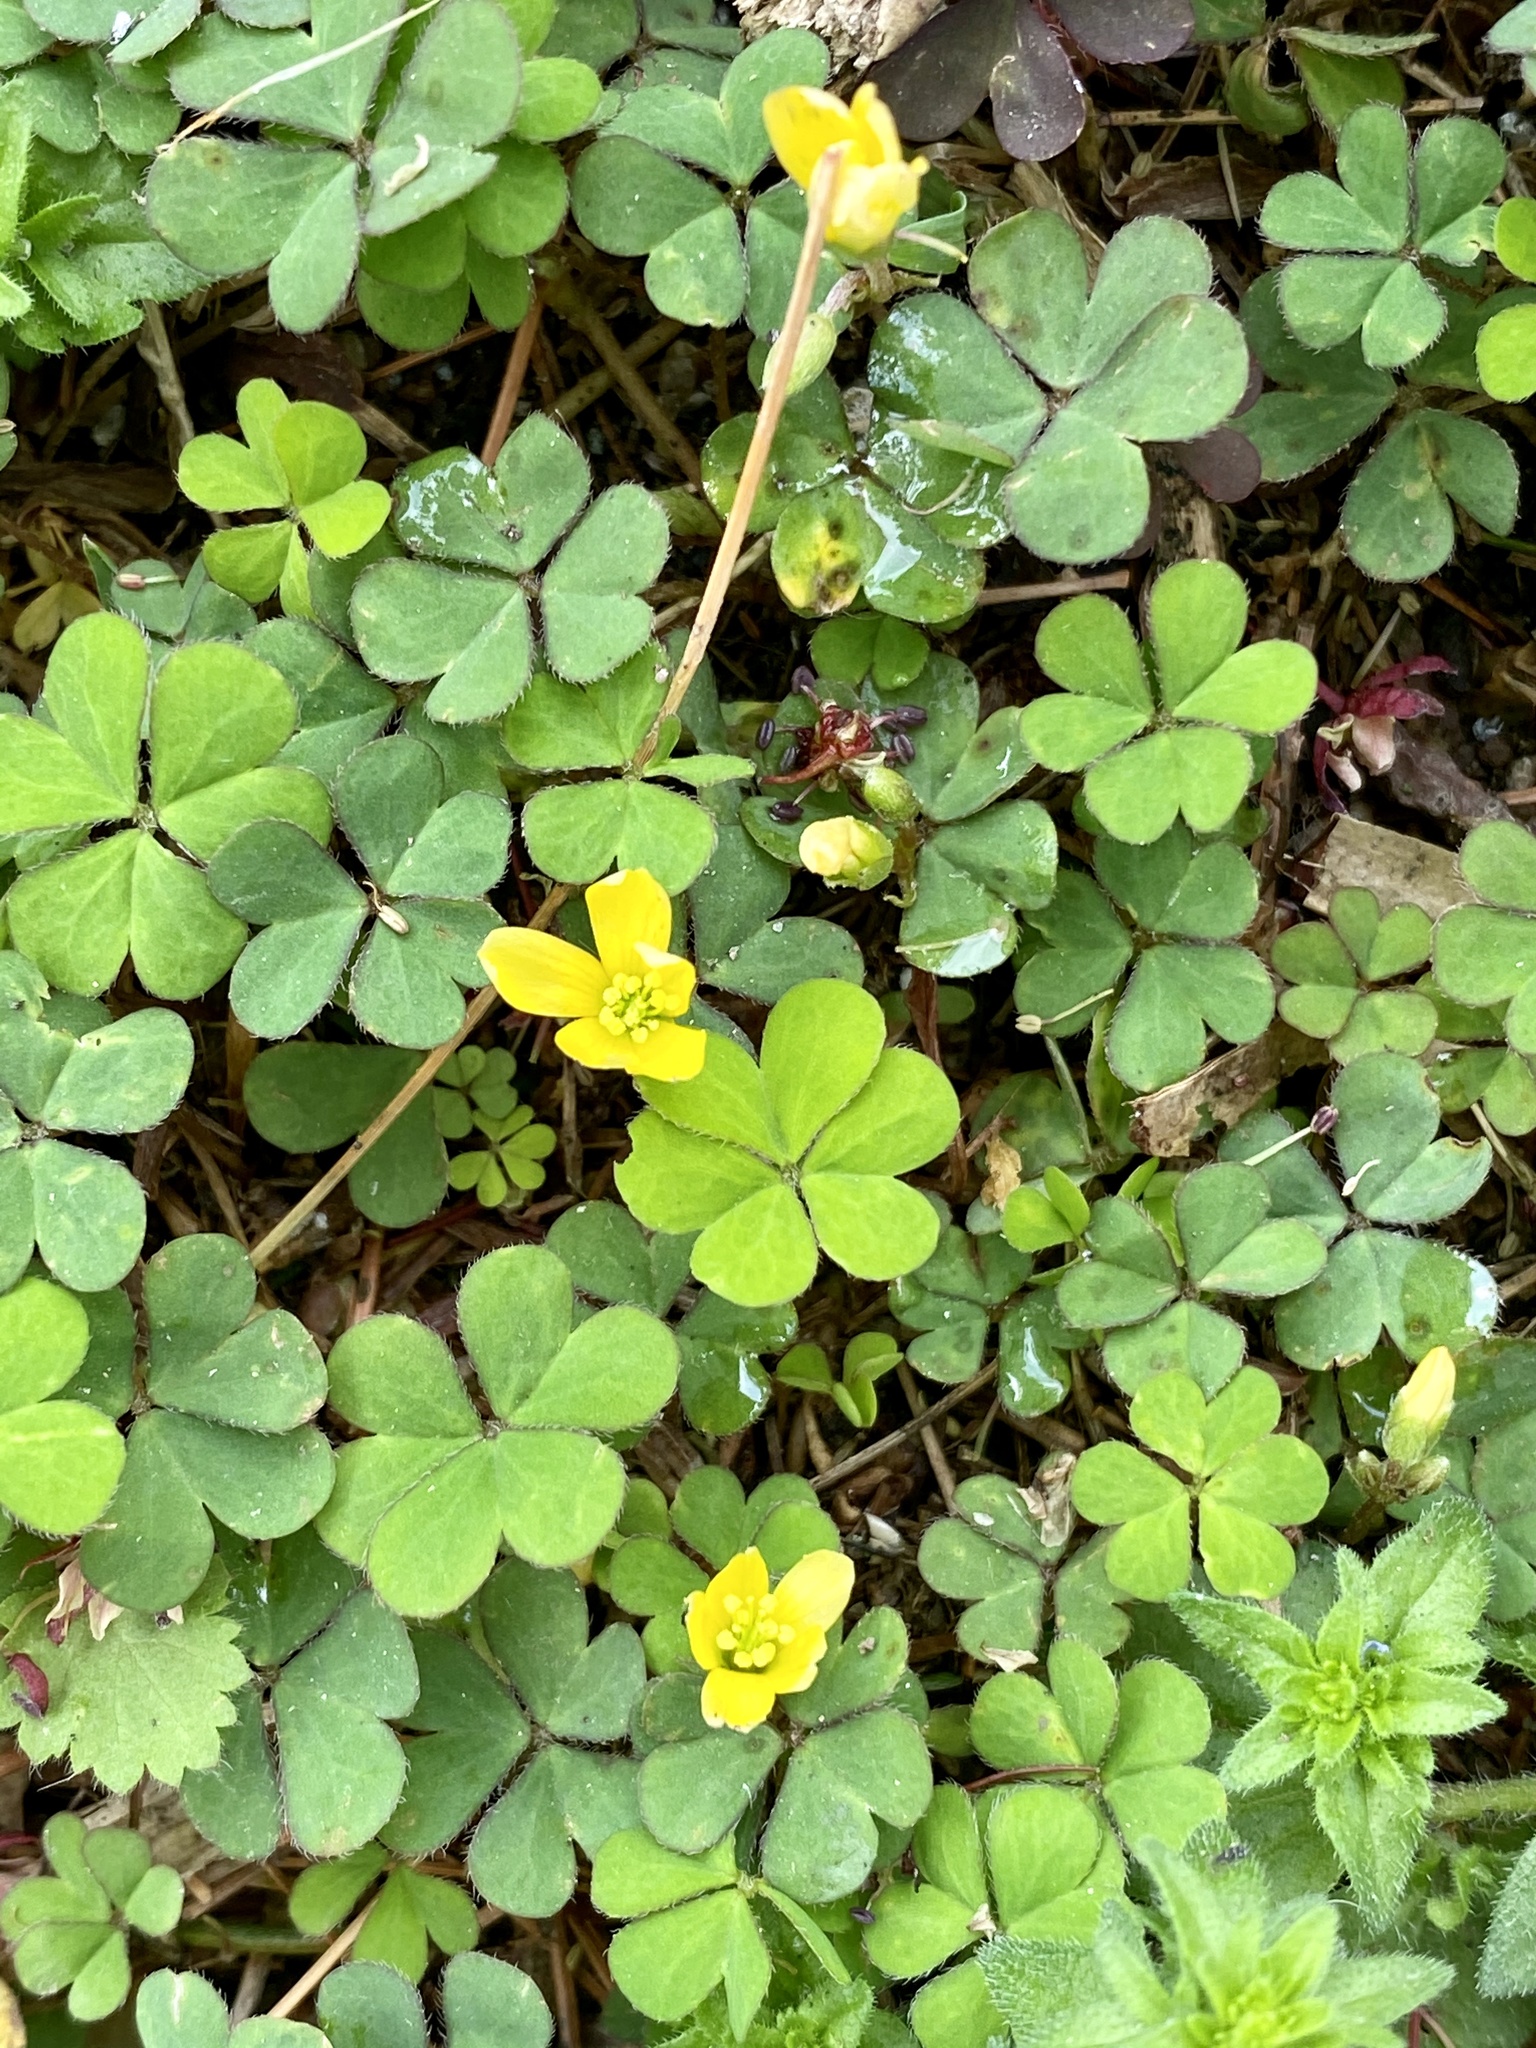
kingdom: Plantae
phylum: Tracheophyta
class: Magnoliopsida
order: Oxalidales
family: Oxalidaceae
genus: Oxalis
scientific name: Oxalis corniculata
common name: Procumbent yellow-sorrel
